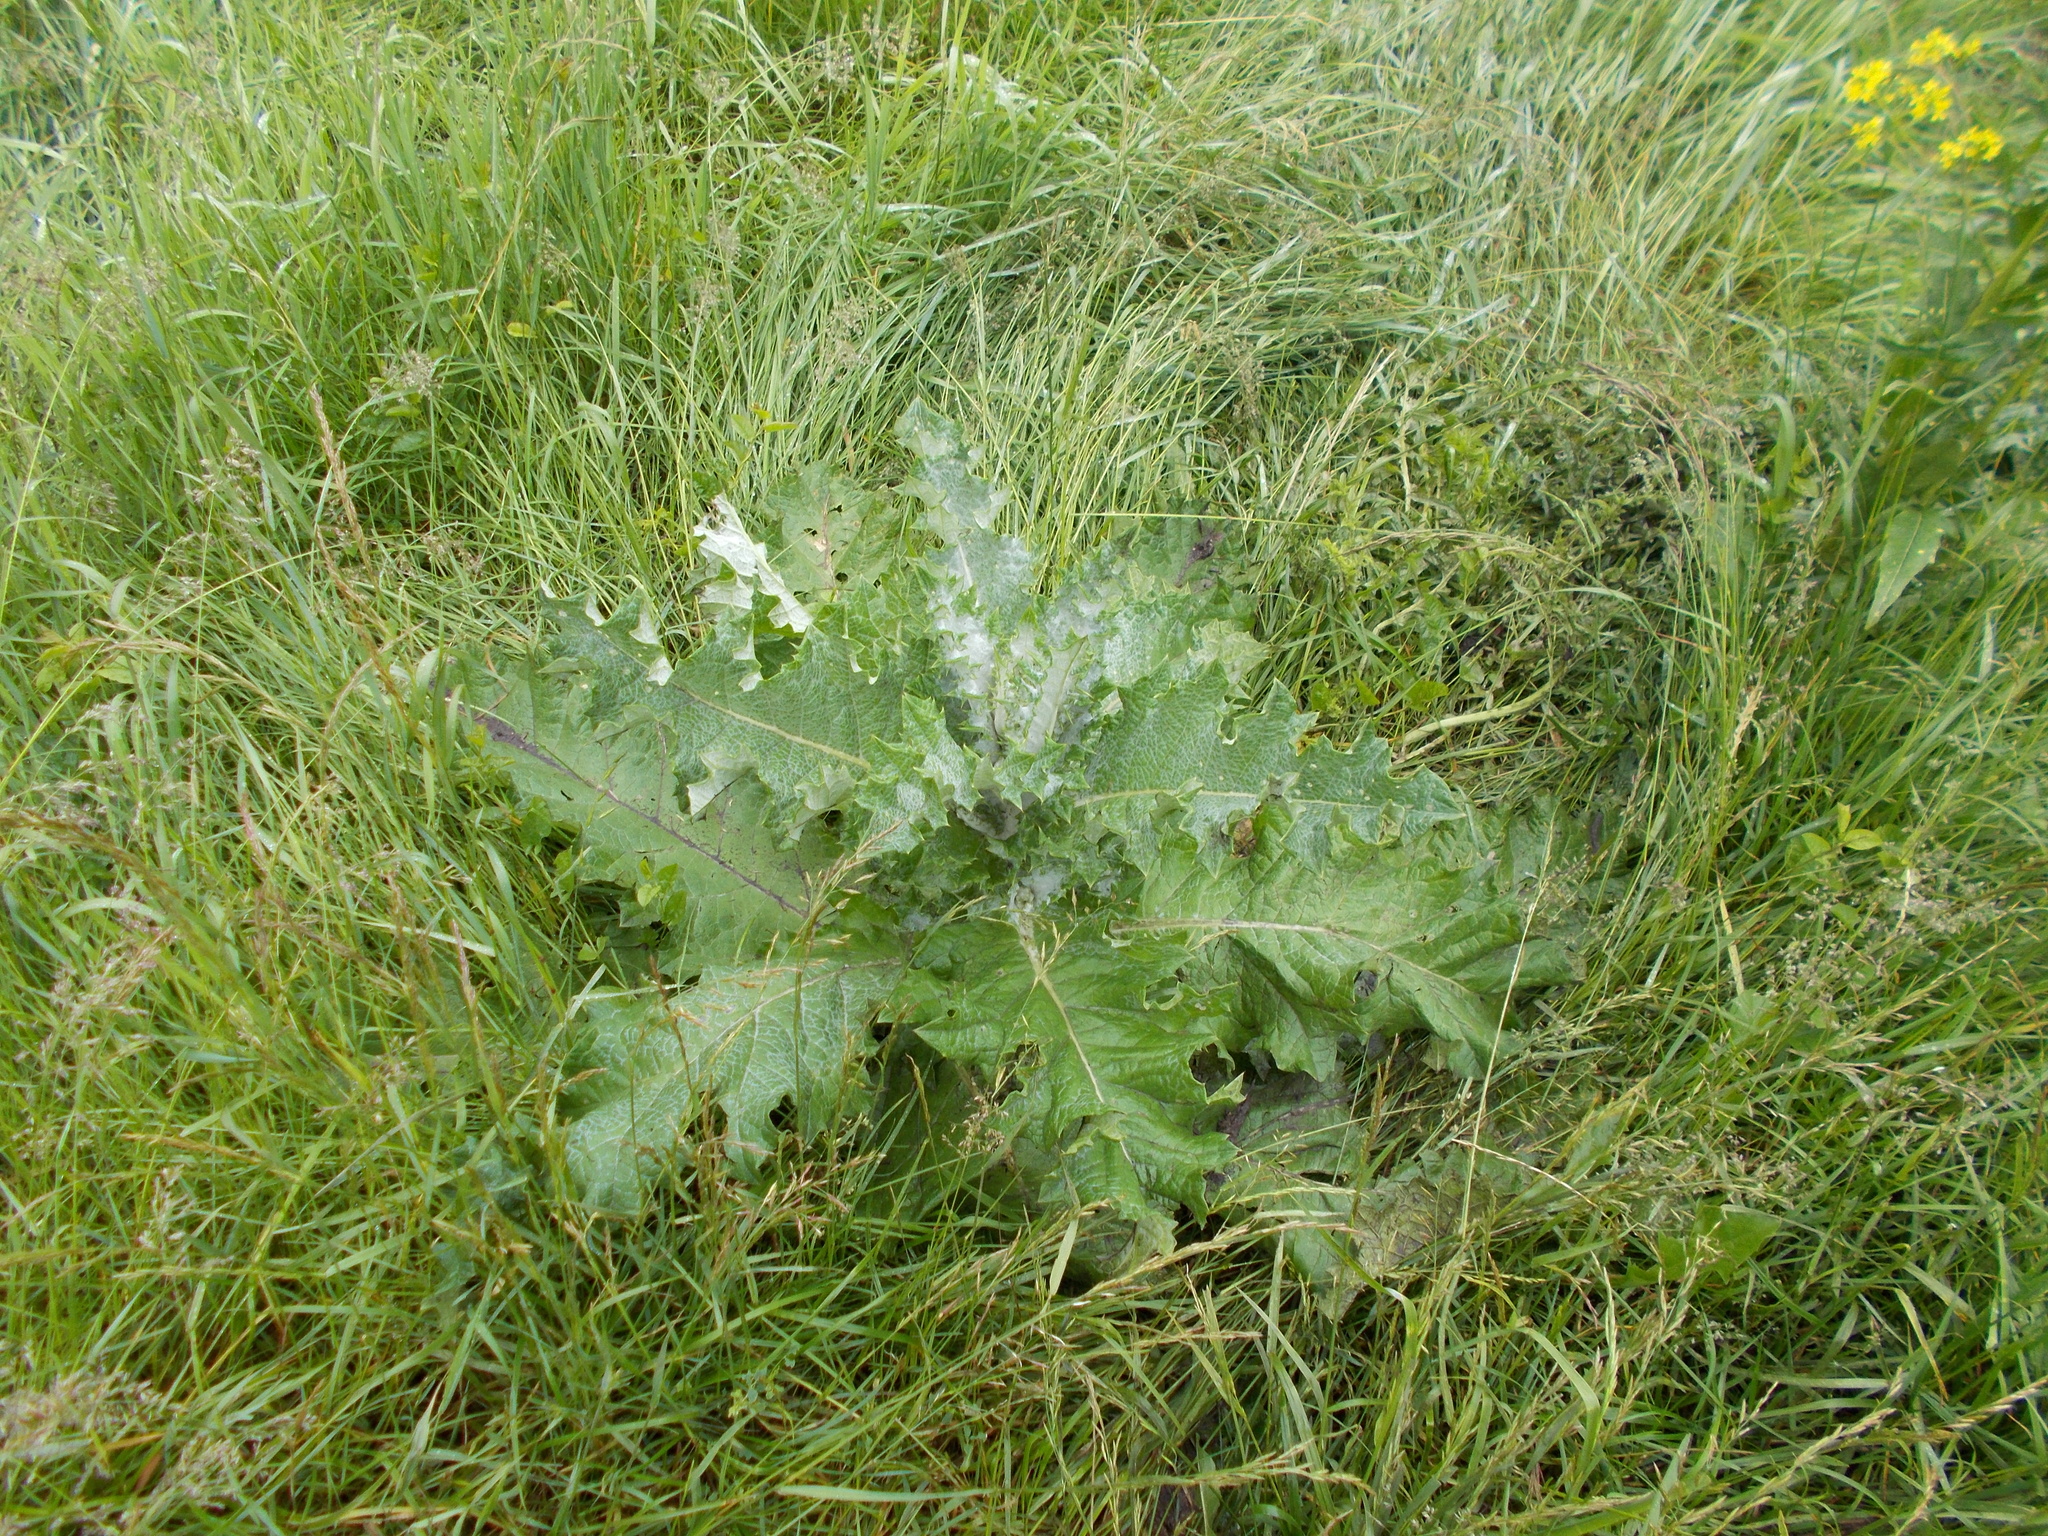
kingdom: Plantae
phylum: Tracheophyta
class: Magnoliopsida
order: Asterales
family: Asteraceae
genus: Onopordum
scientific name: Onopordum acanthium
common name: Scotch thistle
